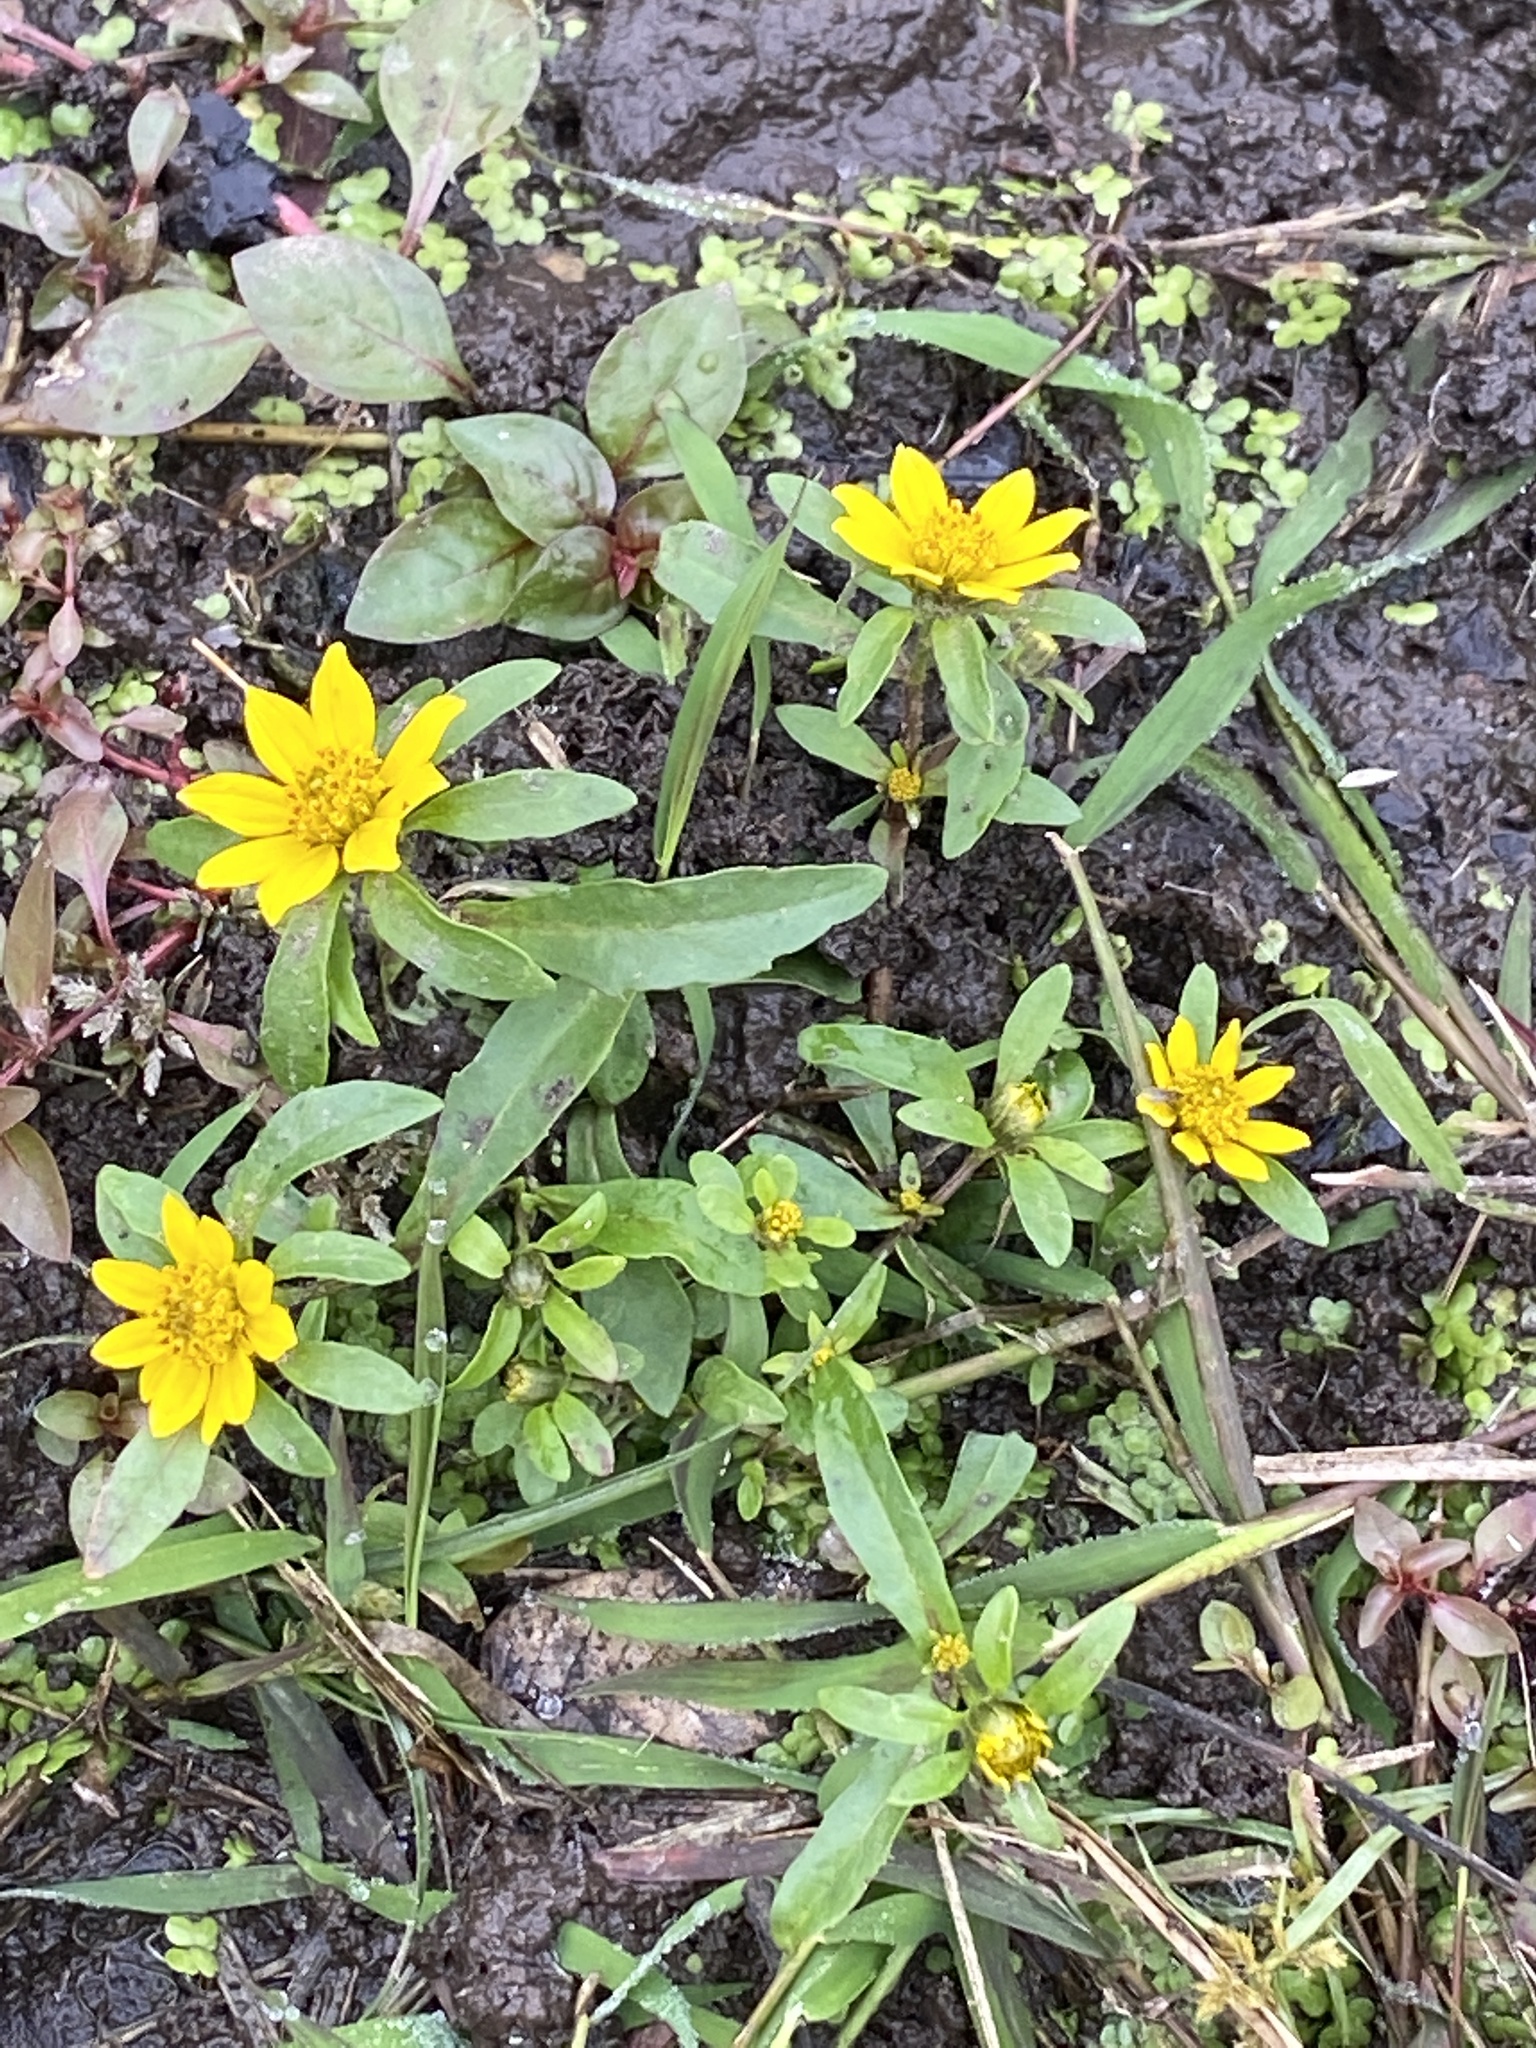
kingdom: Plantae
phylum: Tracheophyta
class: Magnoliopsida
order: Asterales
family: Asteraceae
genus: Bidens
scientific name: Bidens cernua
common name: Nodding bur-marigold
